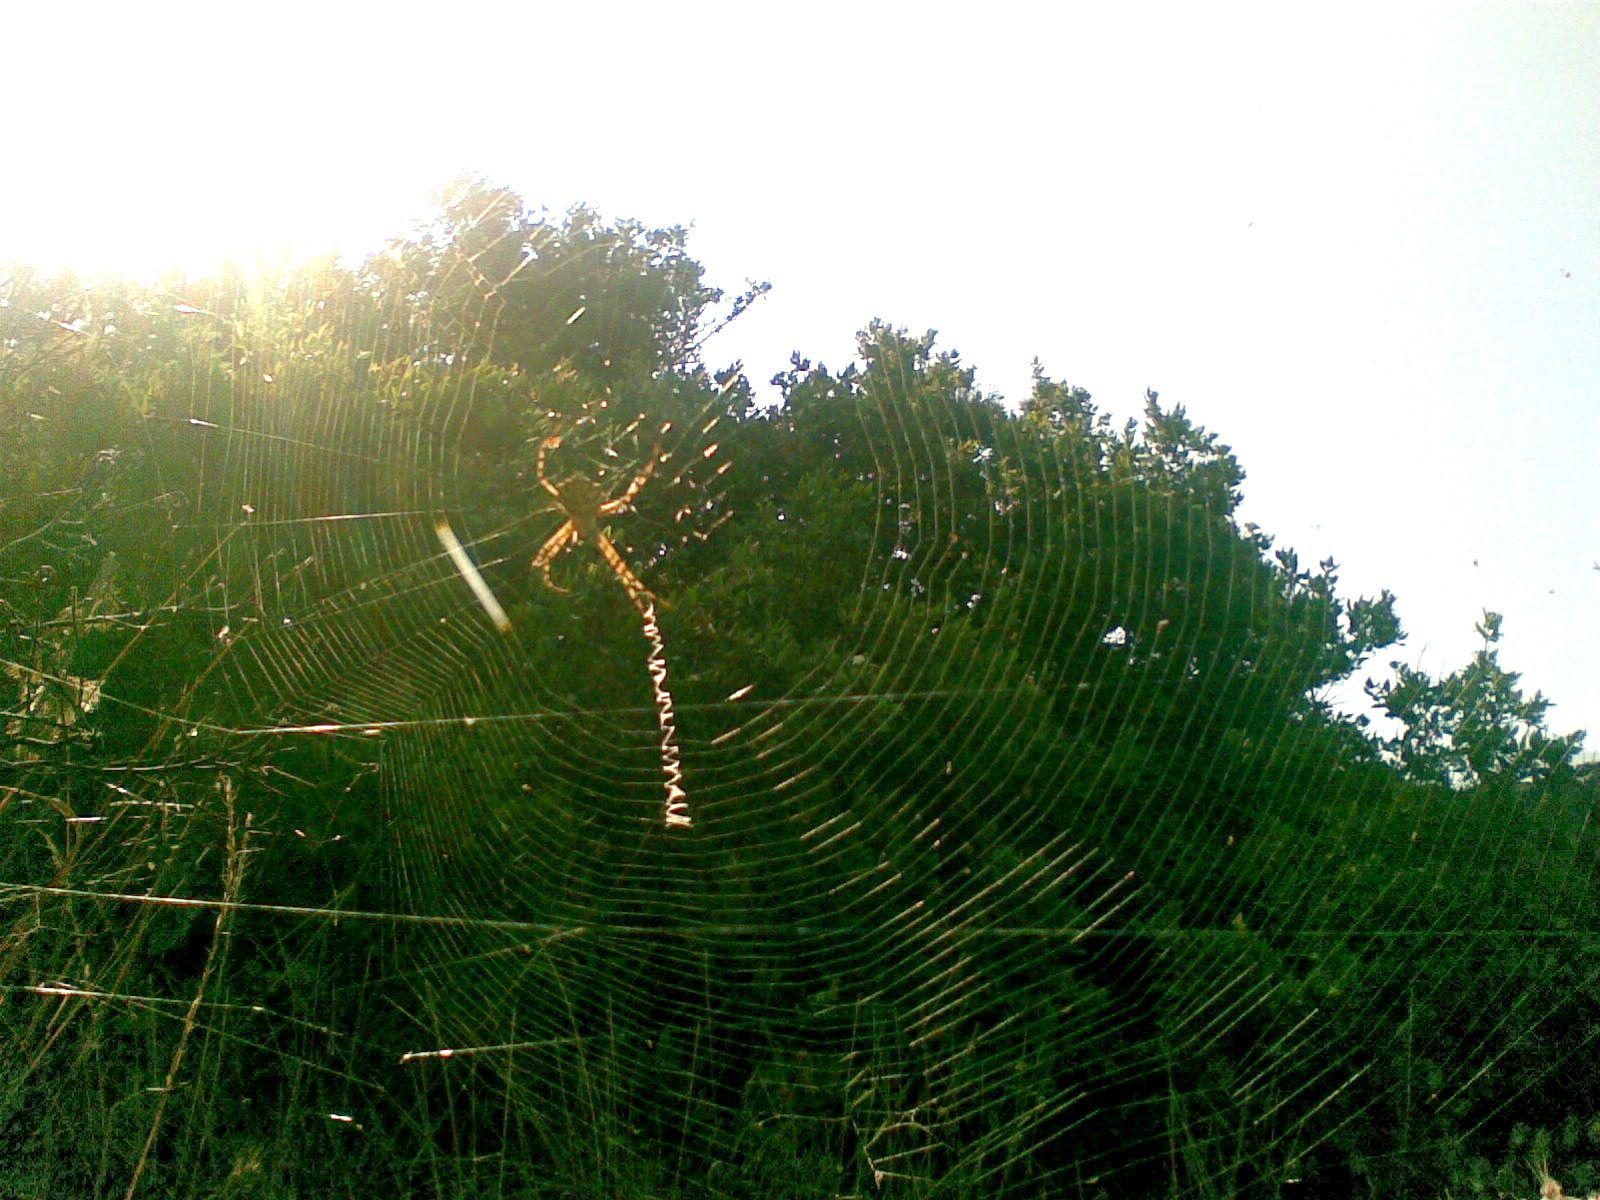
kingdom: Animalia
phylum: Arthropoda
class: Arachnida
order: Araneae
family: Araneidae
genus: Argiope
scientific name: Argiope lobata
